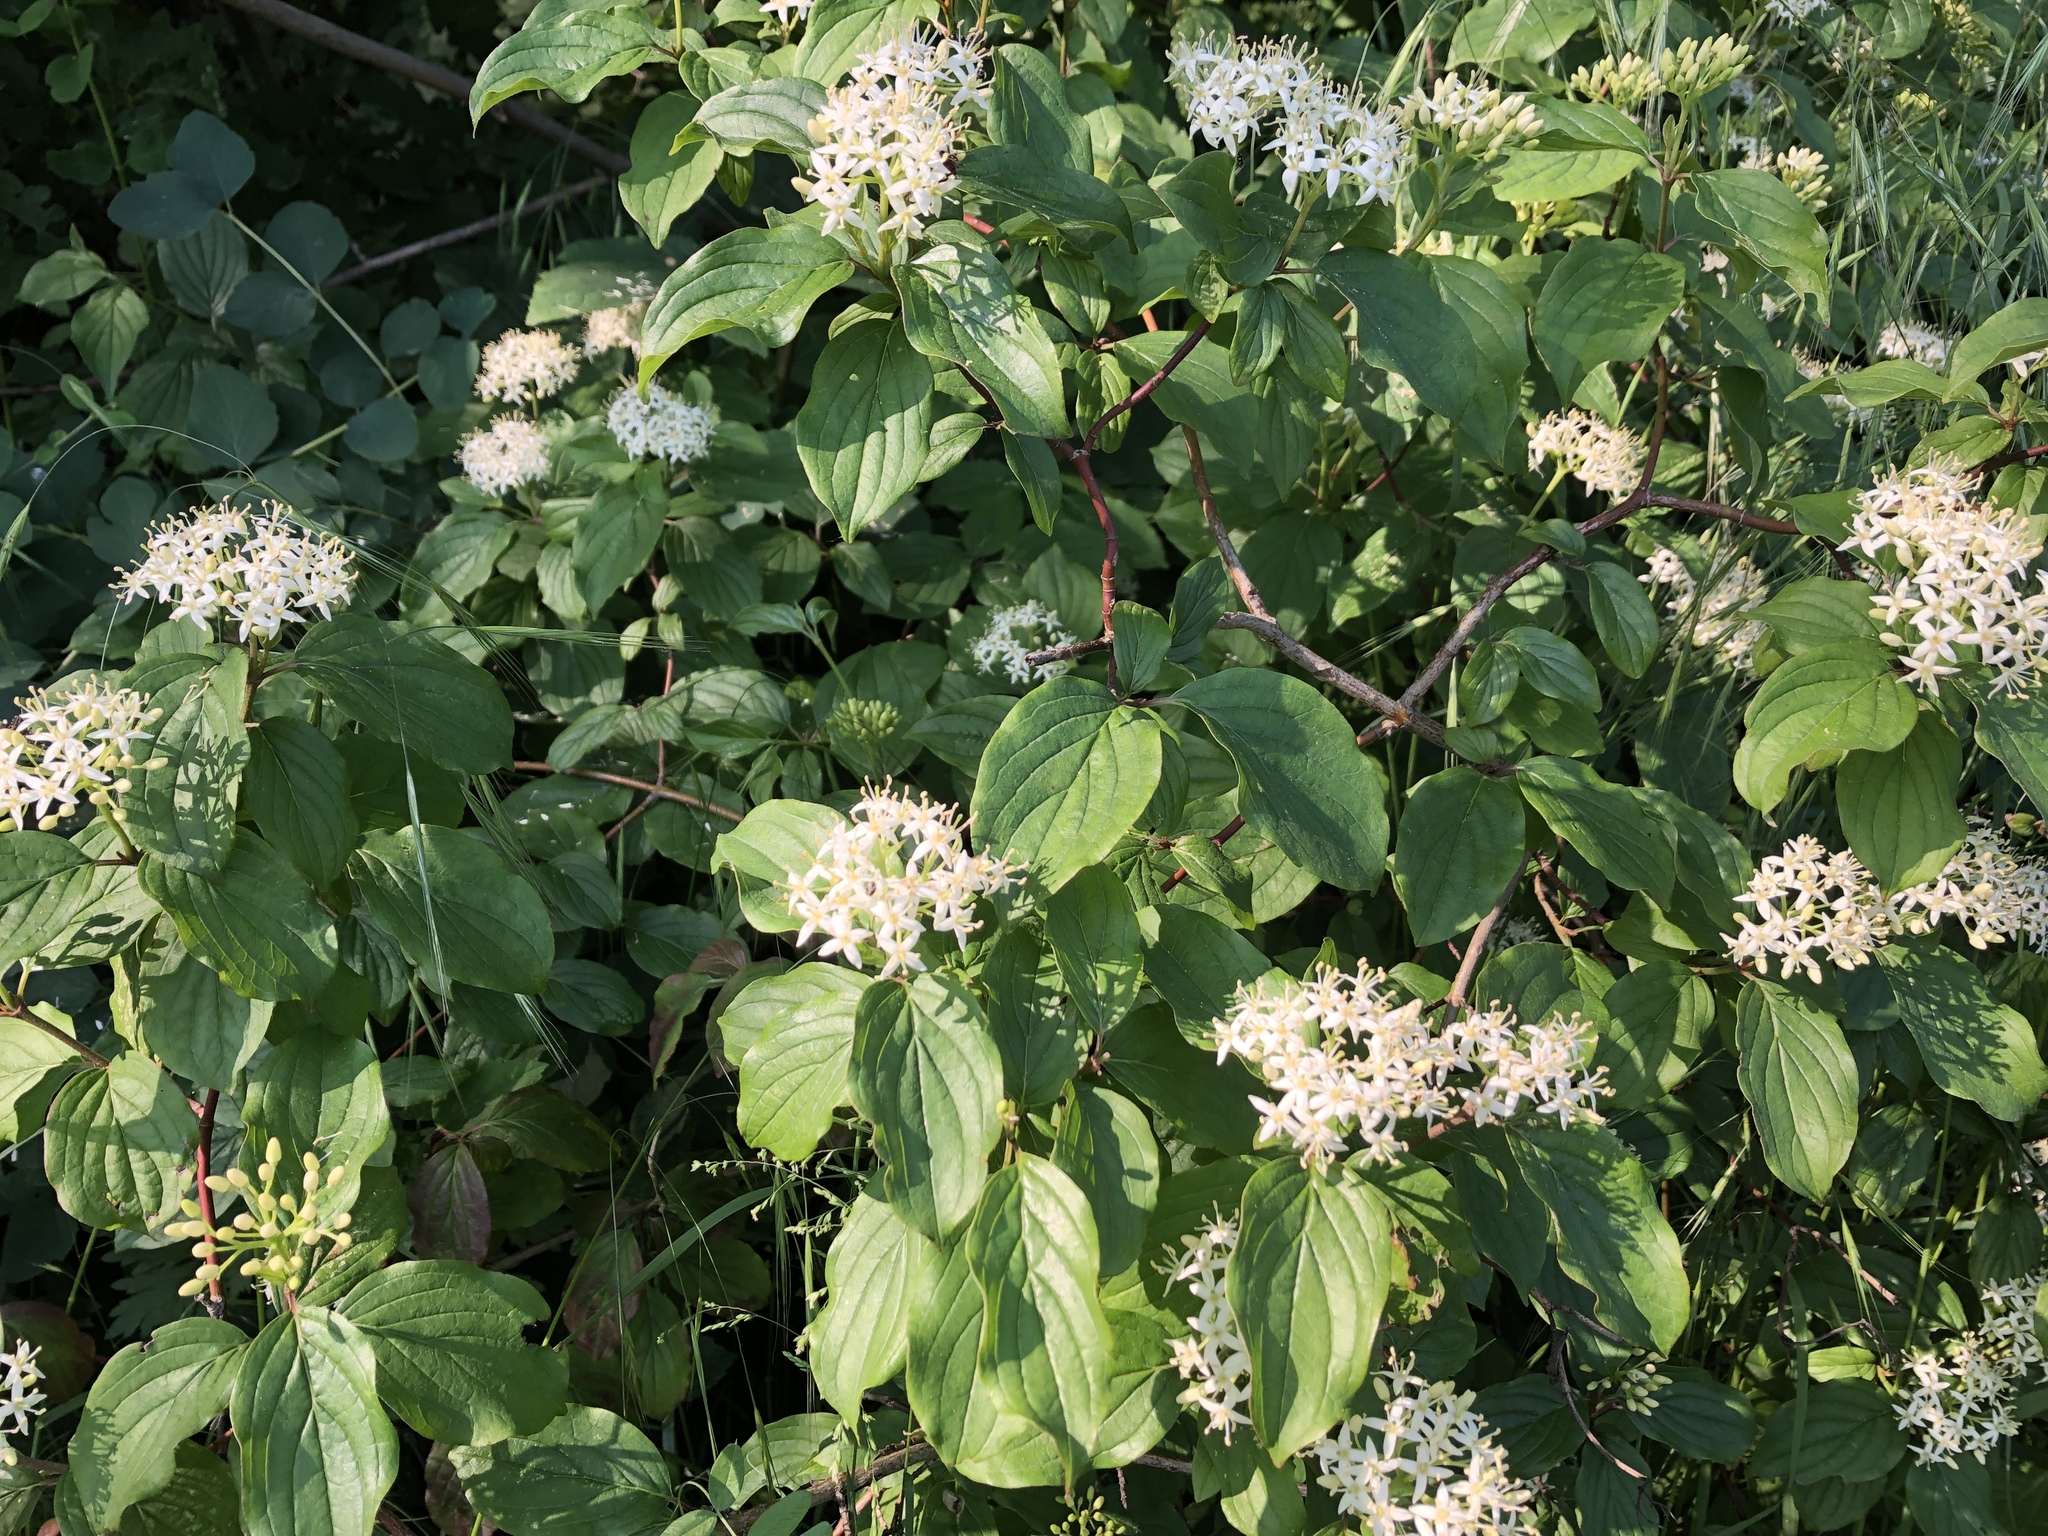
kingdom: Plantae
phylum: Tracheophyta
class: Magnoliopsida
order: Cornales
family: Cornaceae
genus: Cornus
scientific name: Cornus sanguinea
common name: Dogwood
